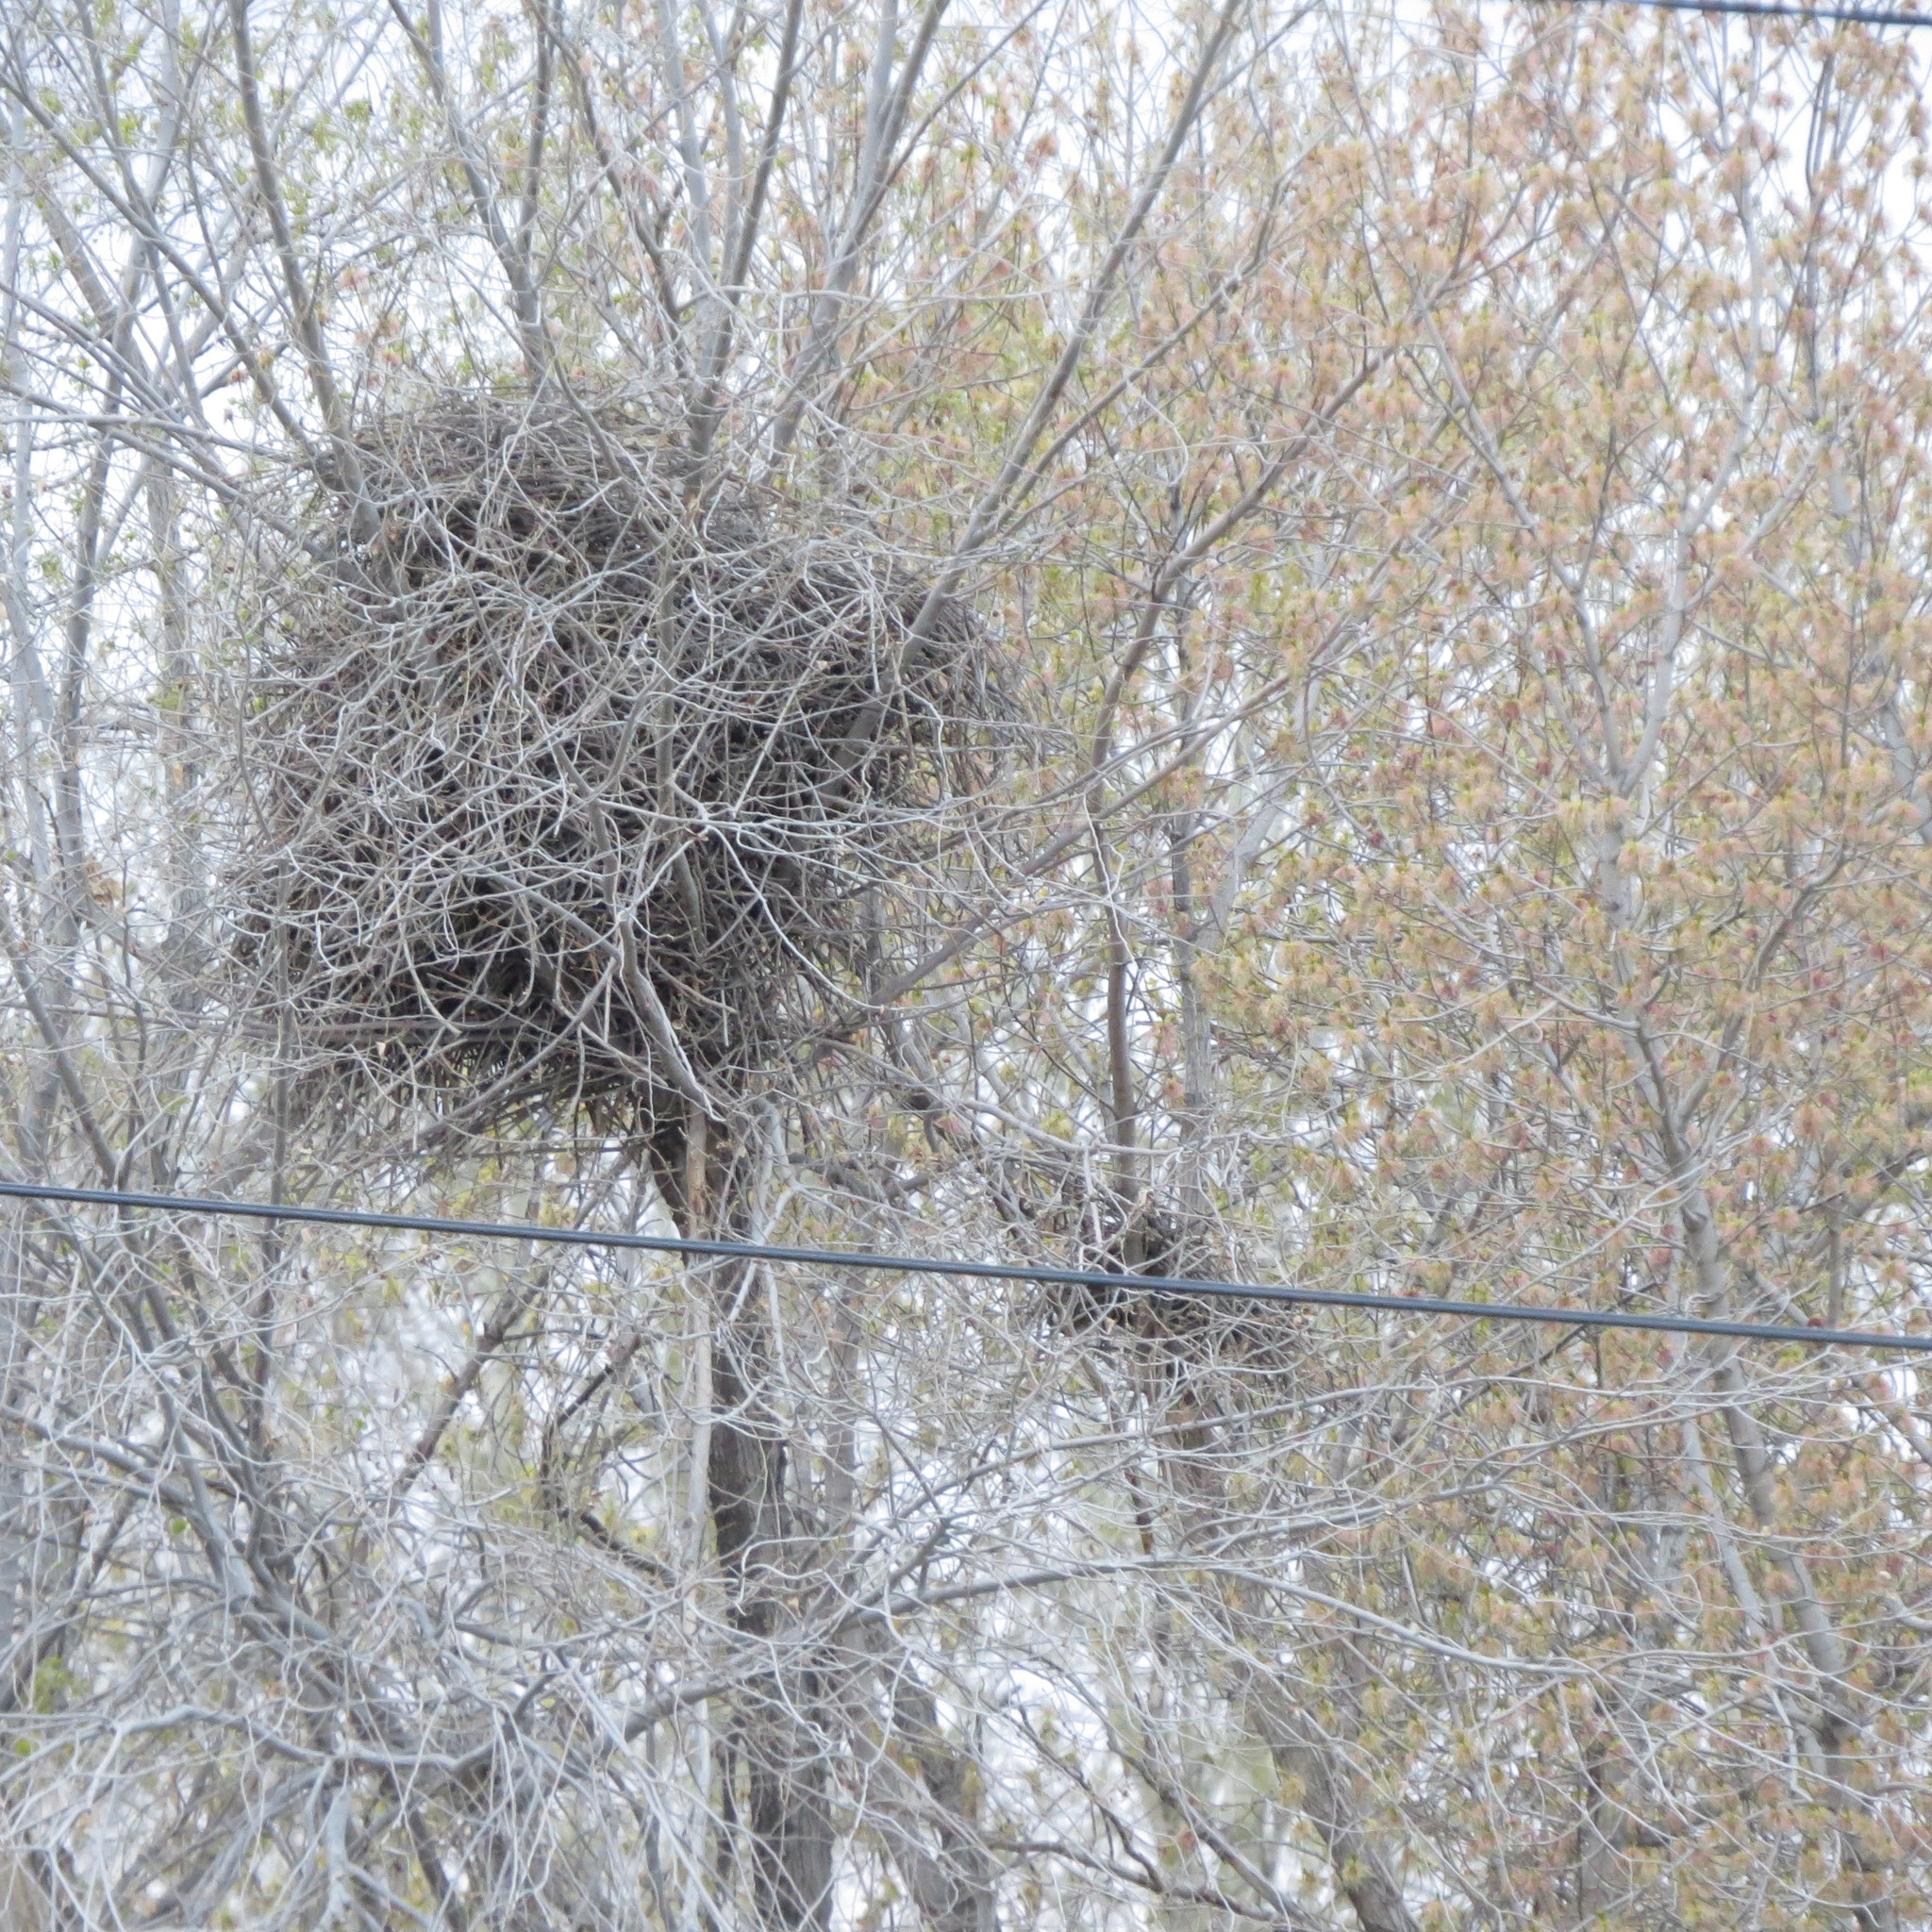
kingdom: Animalia
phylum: Chordata
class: Aves
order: Passeriformes
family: Corvidae
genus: Pica
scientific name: Pica pica
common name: Eurasian magpie
